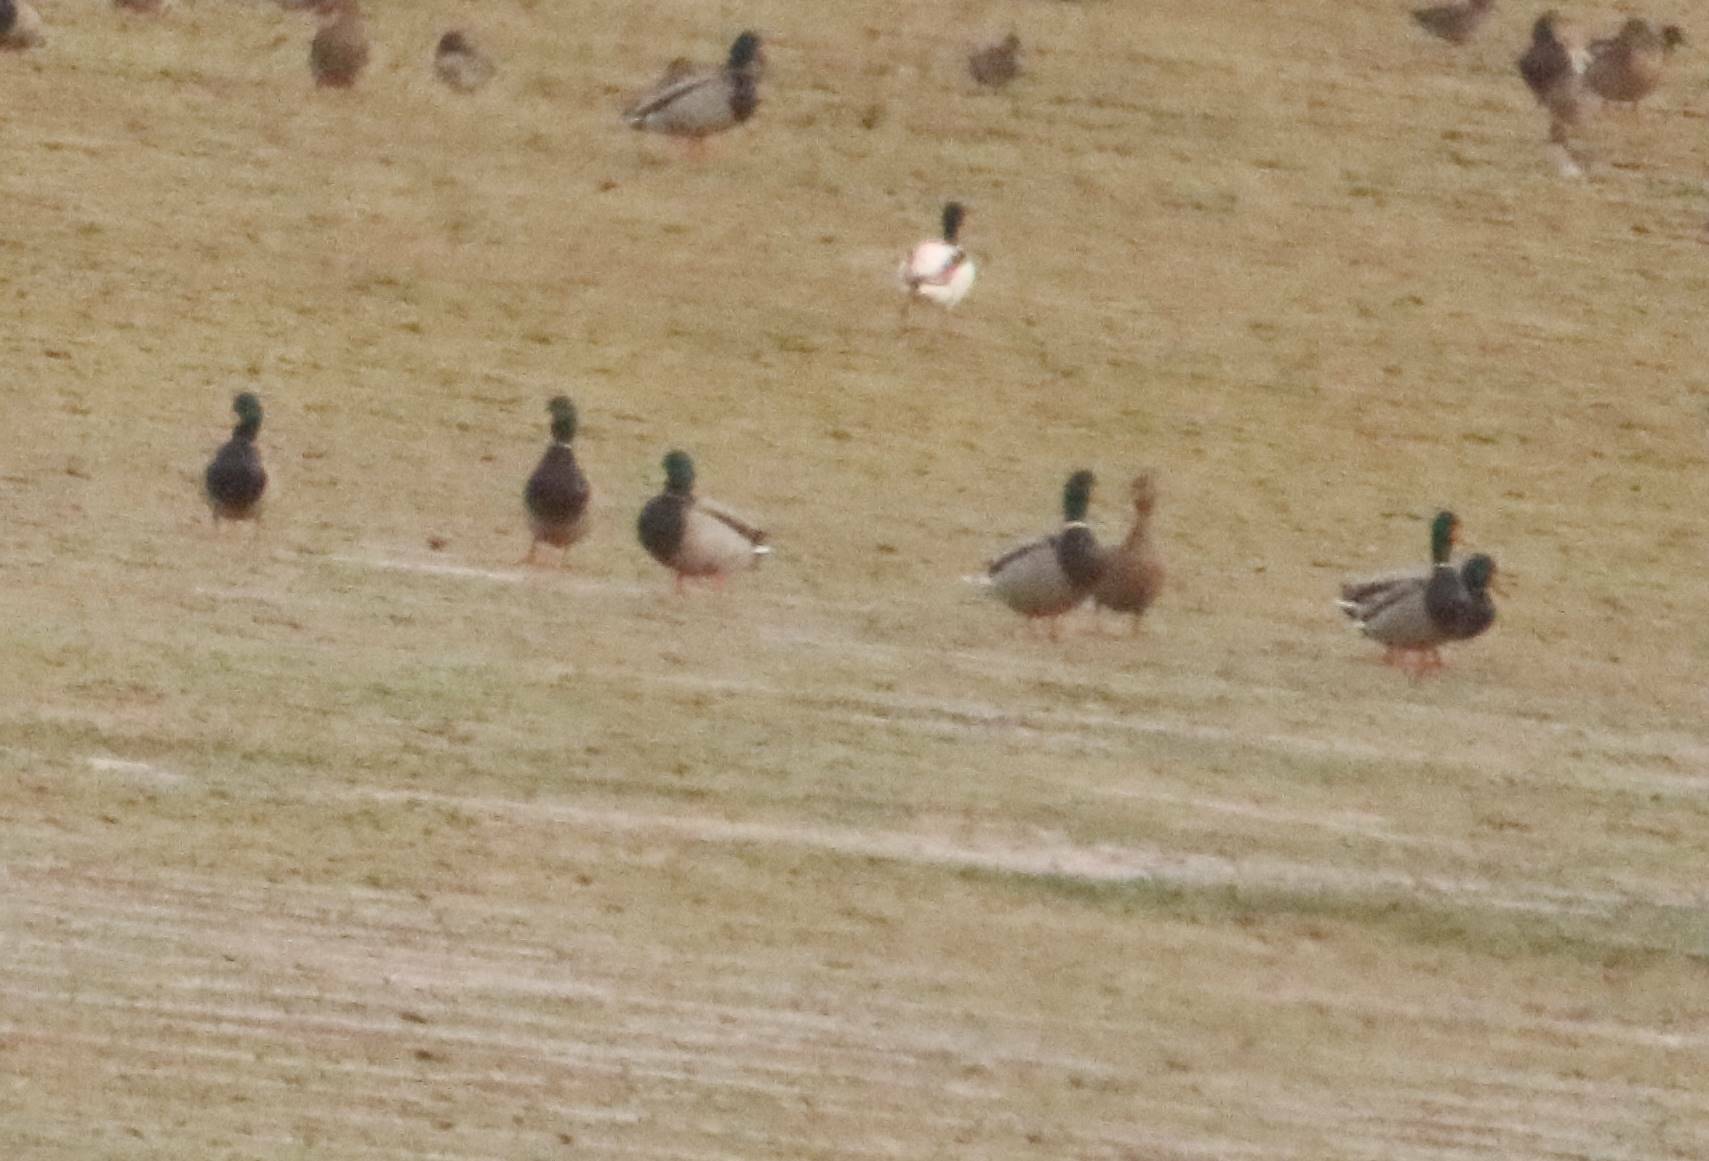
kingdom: Animalia
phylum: Chordata
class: Aves
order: Anseriformes
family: Anatidae
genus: Anas
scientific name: Anas platyrhynchos
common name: Mallard
